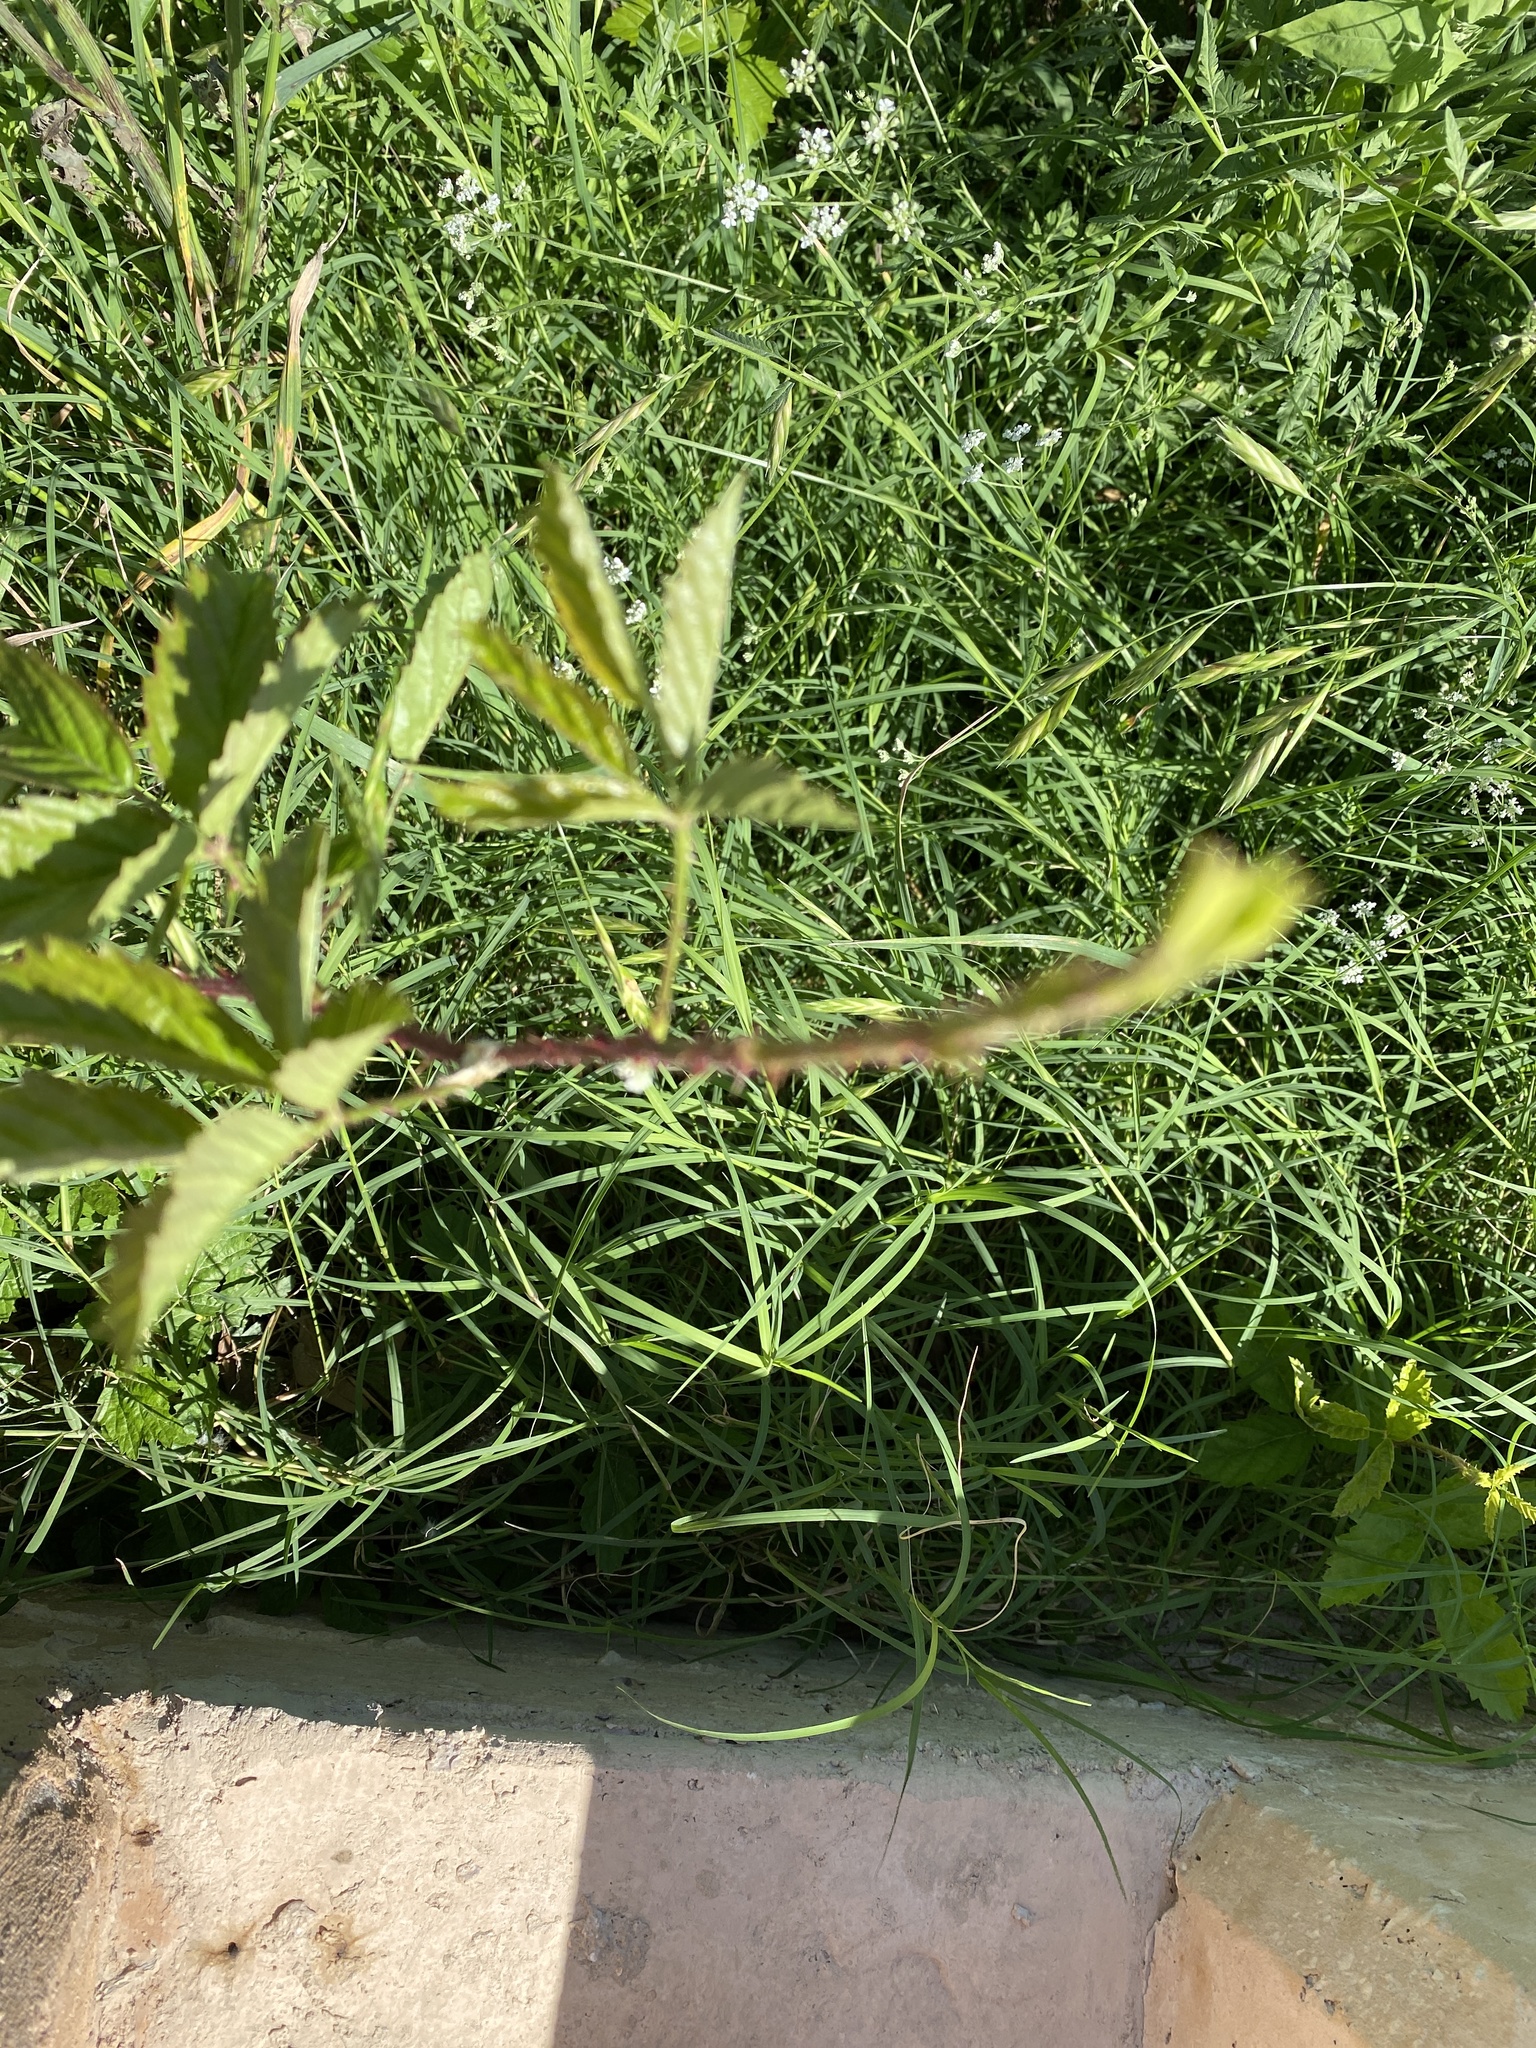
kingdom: Plantae
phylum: Tracheophyta
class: Magnoliopsida
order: Rosales
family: Rosaceae
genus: Rubus
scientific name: Rubus trivialis
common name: Southern dewberry
